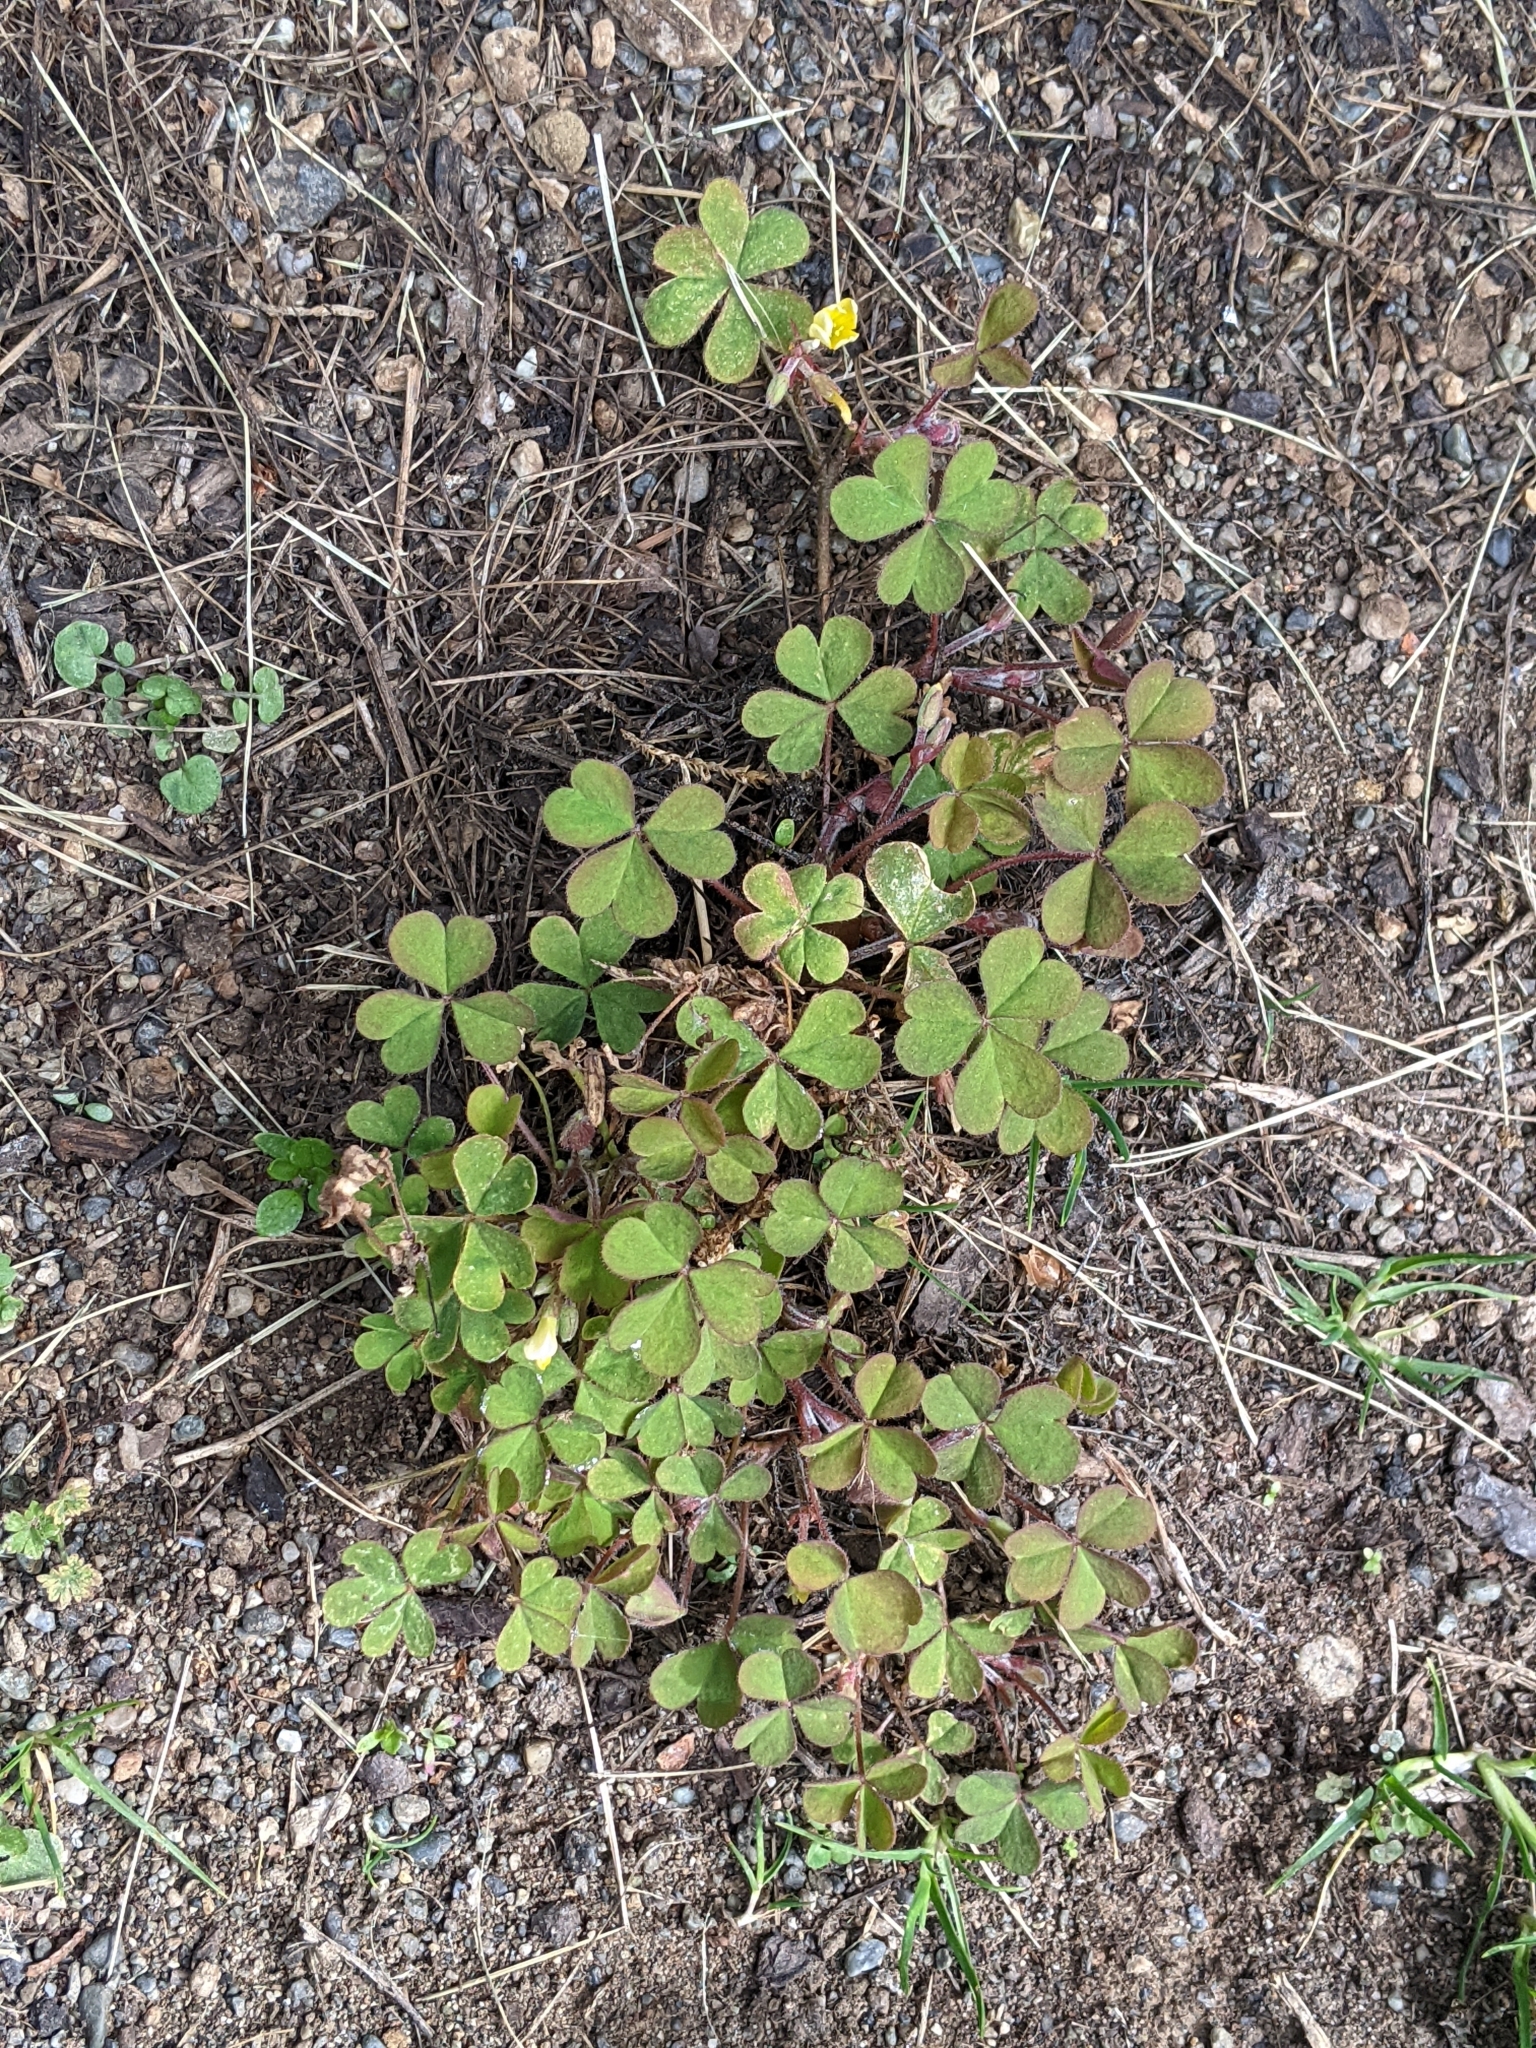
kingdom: Plantae
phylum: Tracheophyta
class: Magnoliopsida
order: Oxalidales
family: Oxalidaceae
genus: Oxalis
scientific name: Oxalis corniculata
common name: Procumbent yellow-sorrel
